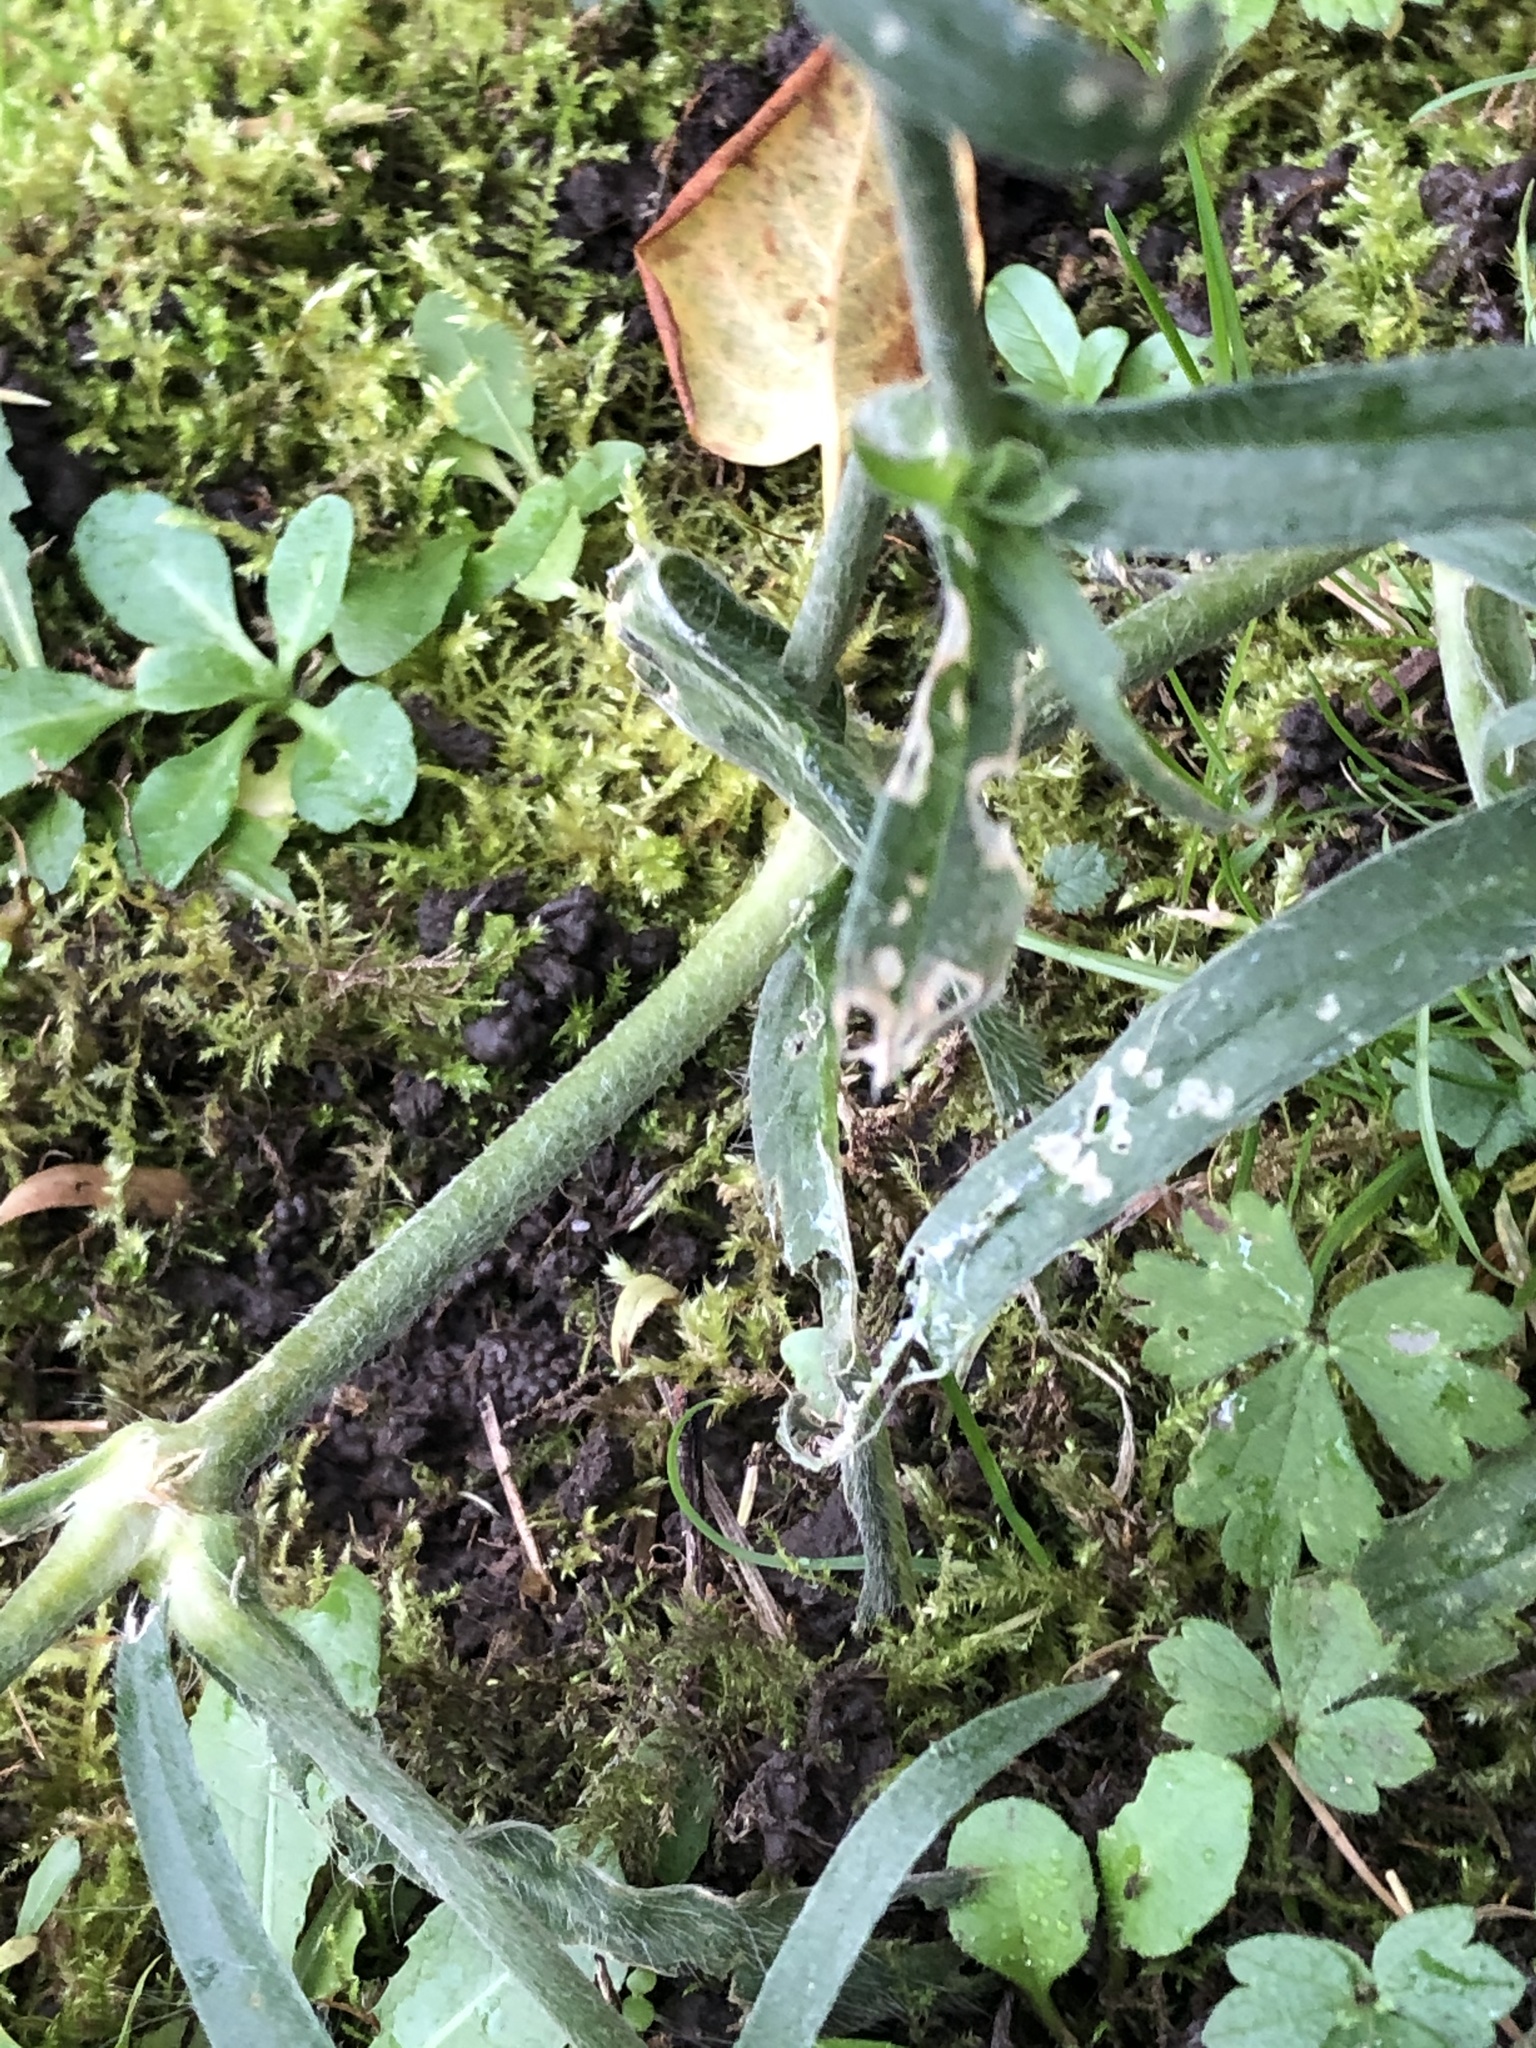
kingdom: Plantae
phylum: Tracheophyta
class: Magnoliopsida
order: Caryophyllales
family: Caryophyllaceae
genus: Agrostemma
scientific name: Agrostemma githago
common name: Common corncockle
